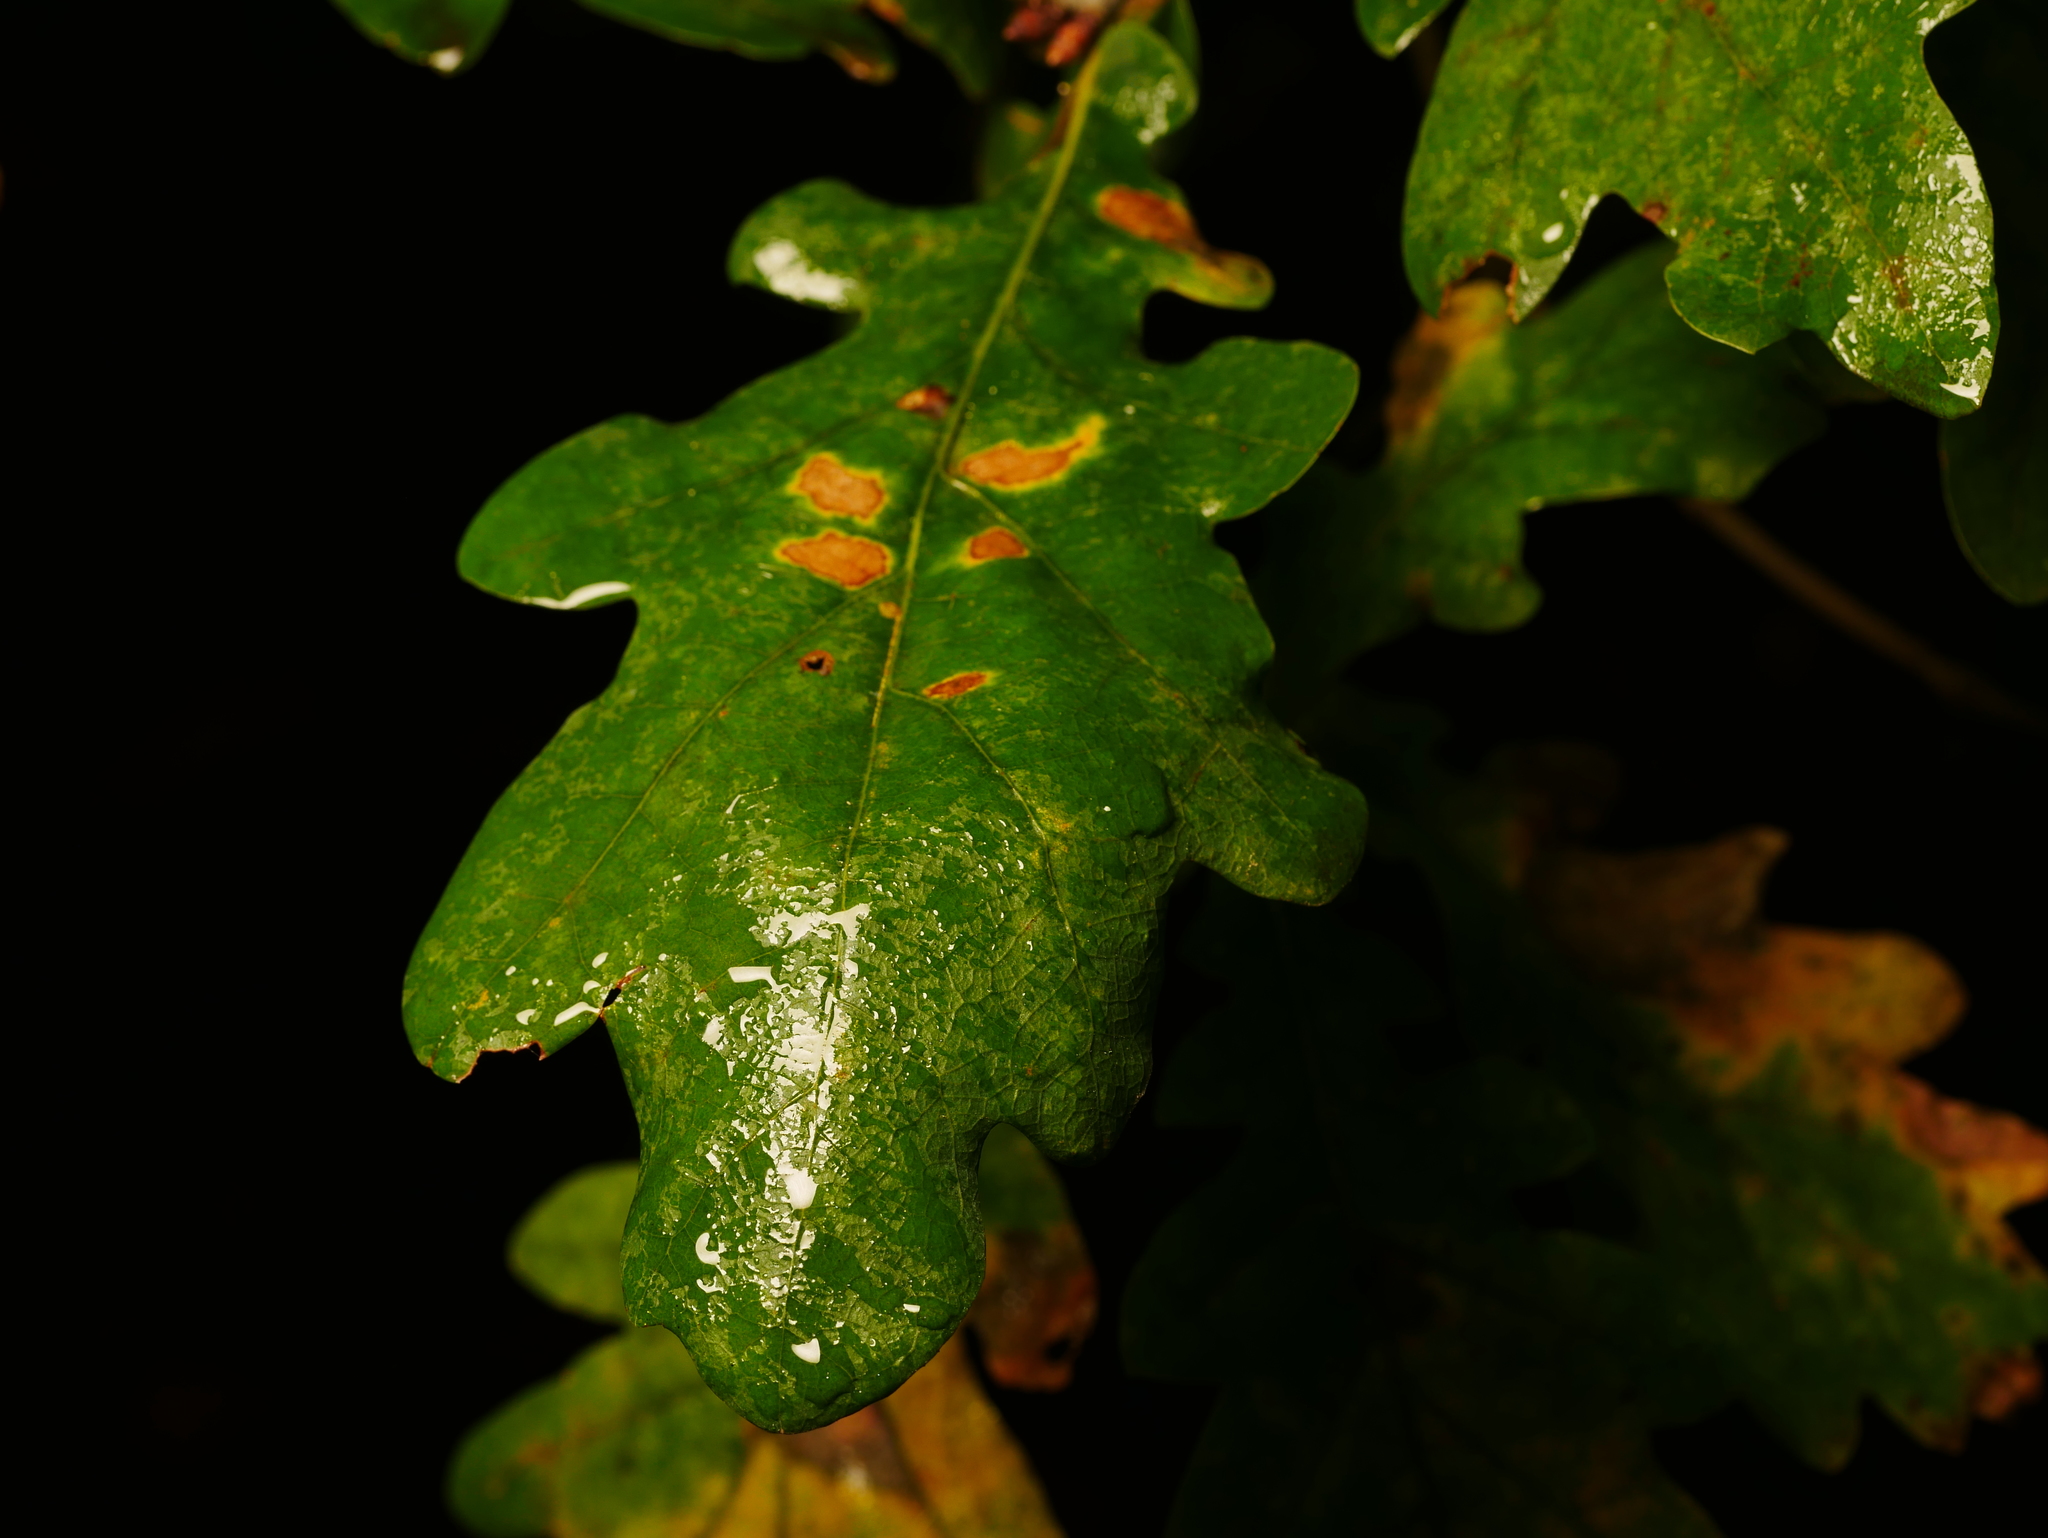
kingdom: Plantae
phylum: Tracheophyta
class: Magnoliopsida
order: Fagales
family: Fagaceae
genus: Quercus
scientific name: Quercus robur
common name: Pedunculate oak
